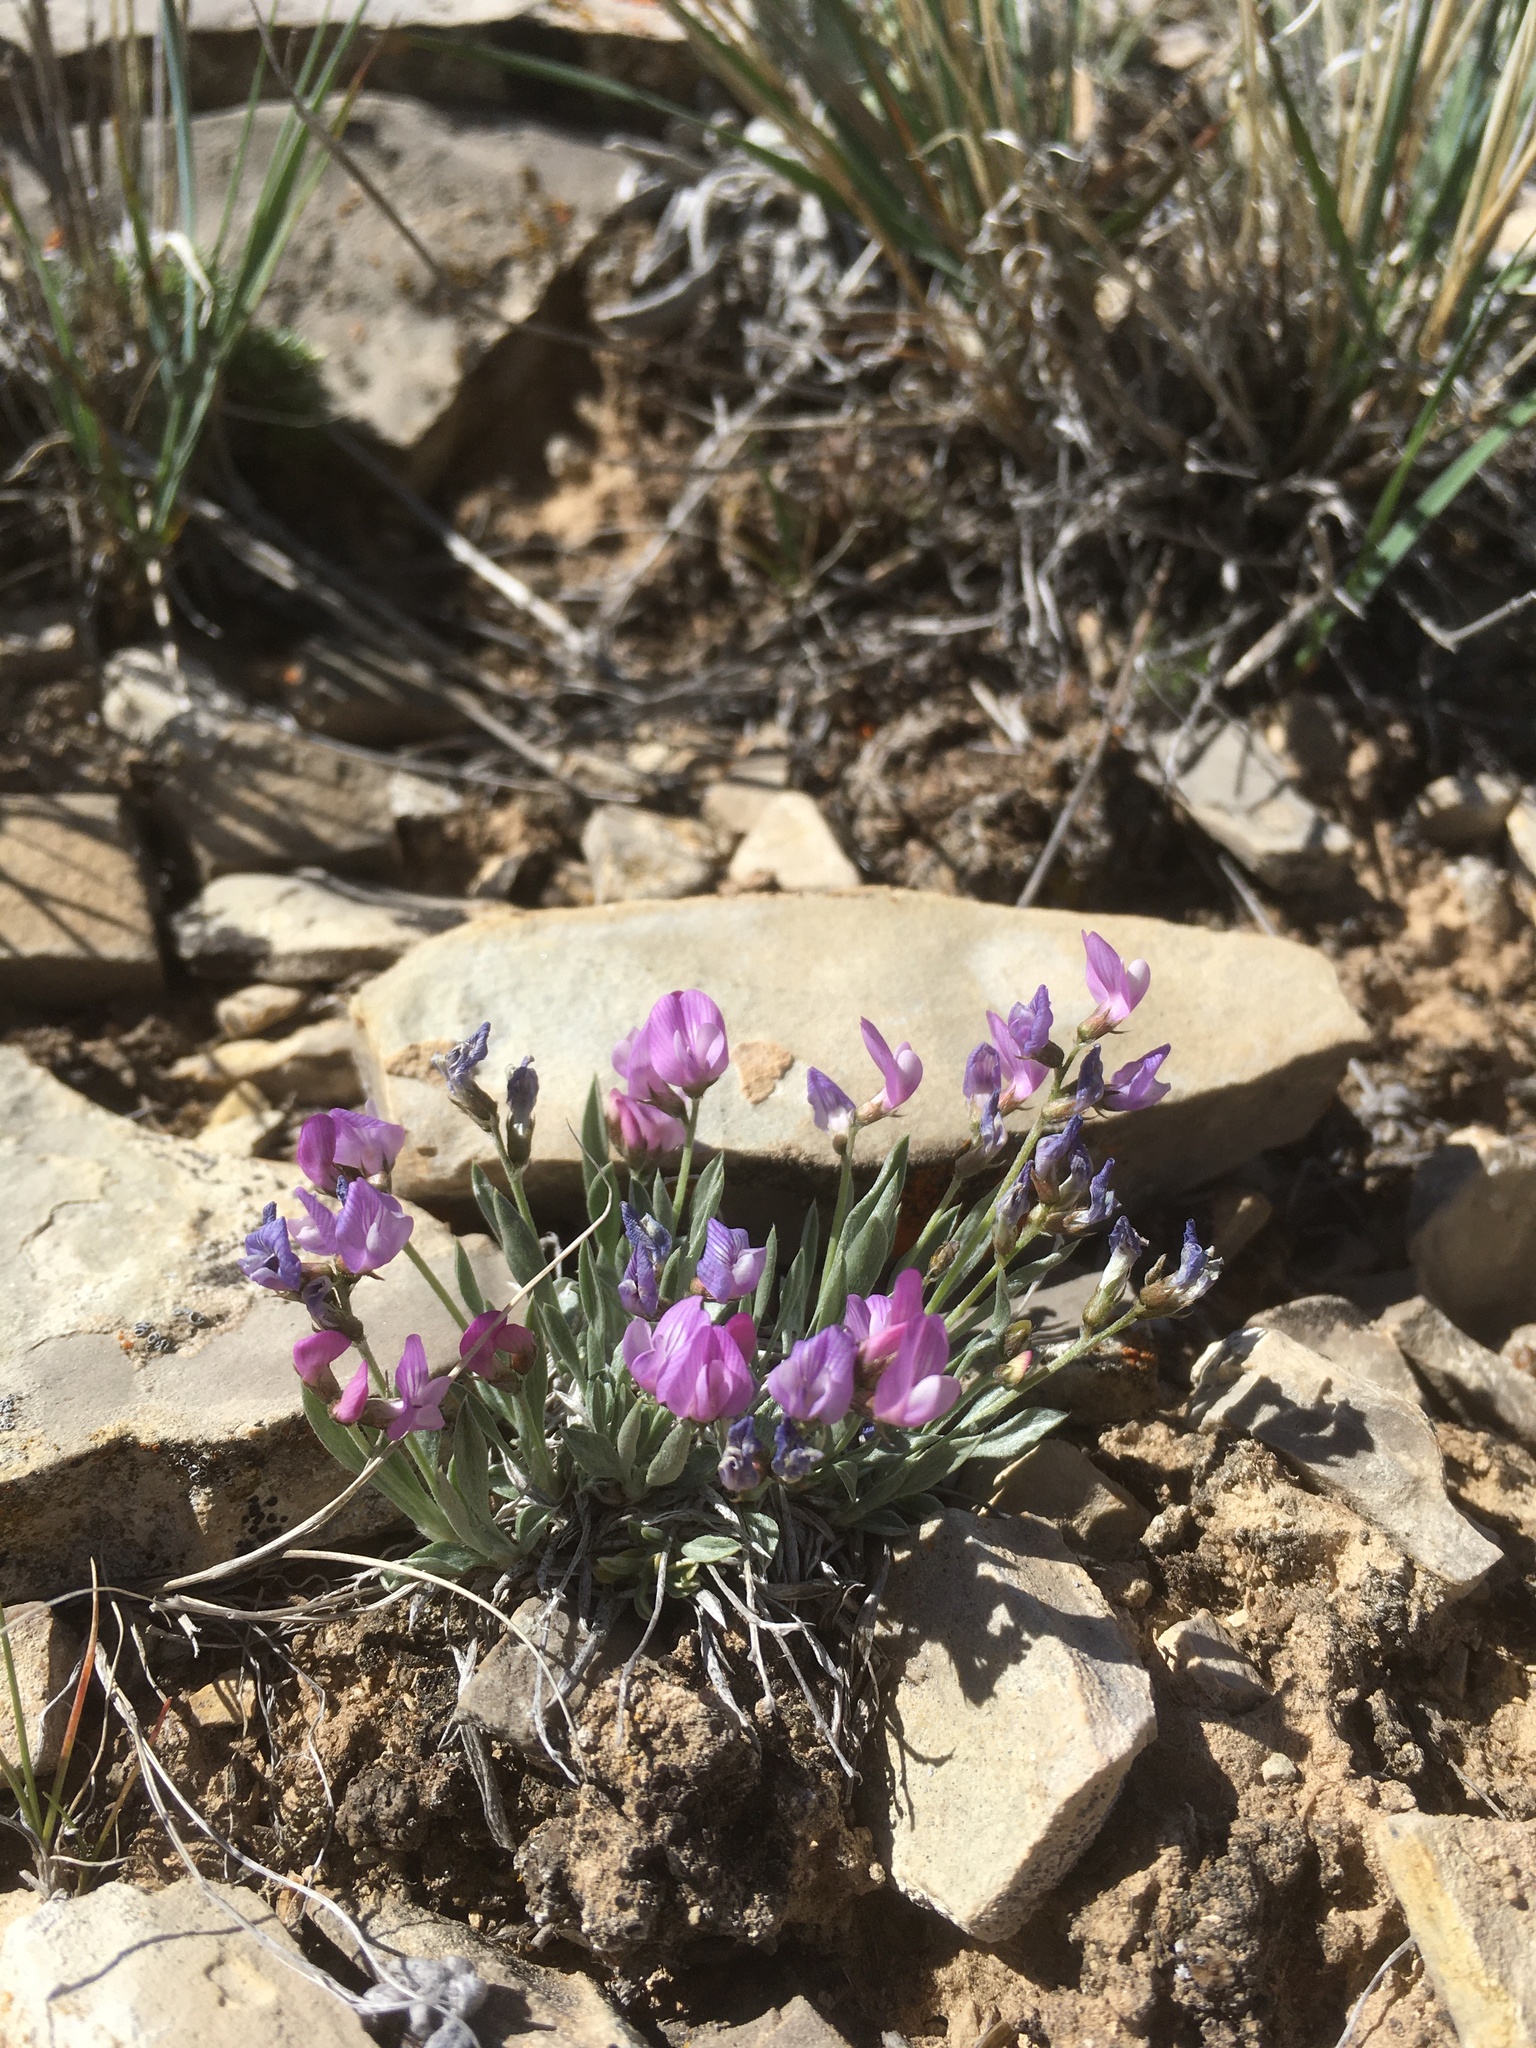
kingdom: Plantae
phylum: Tracheophyta
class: Magnoliopsida
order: Fabales
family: Fabaceae
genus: Astragalus
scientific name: Astragalus spatulatus
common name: Draba milk-vetch
